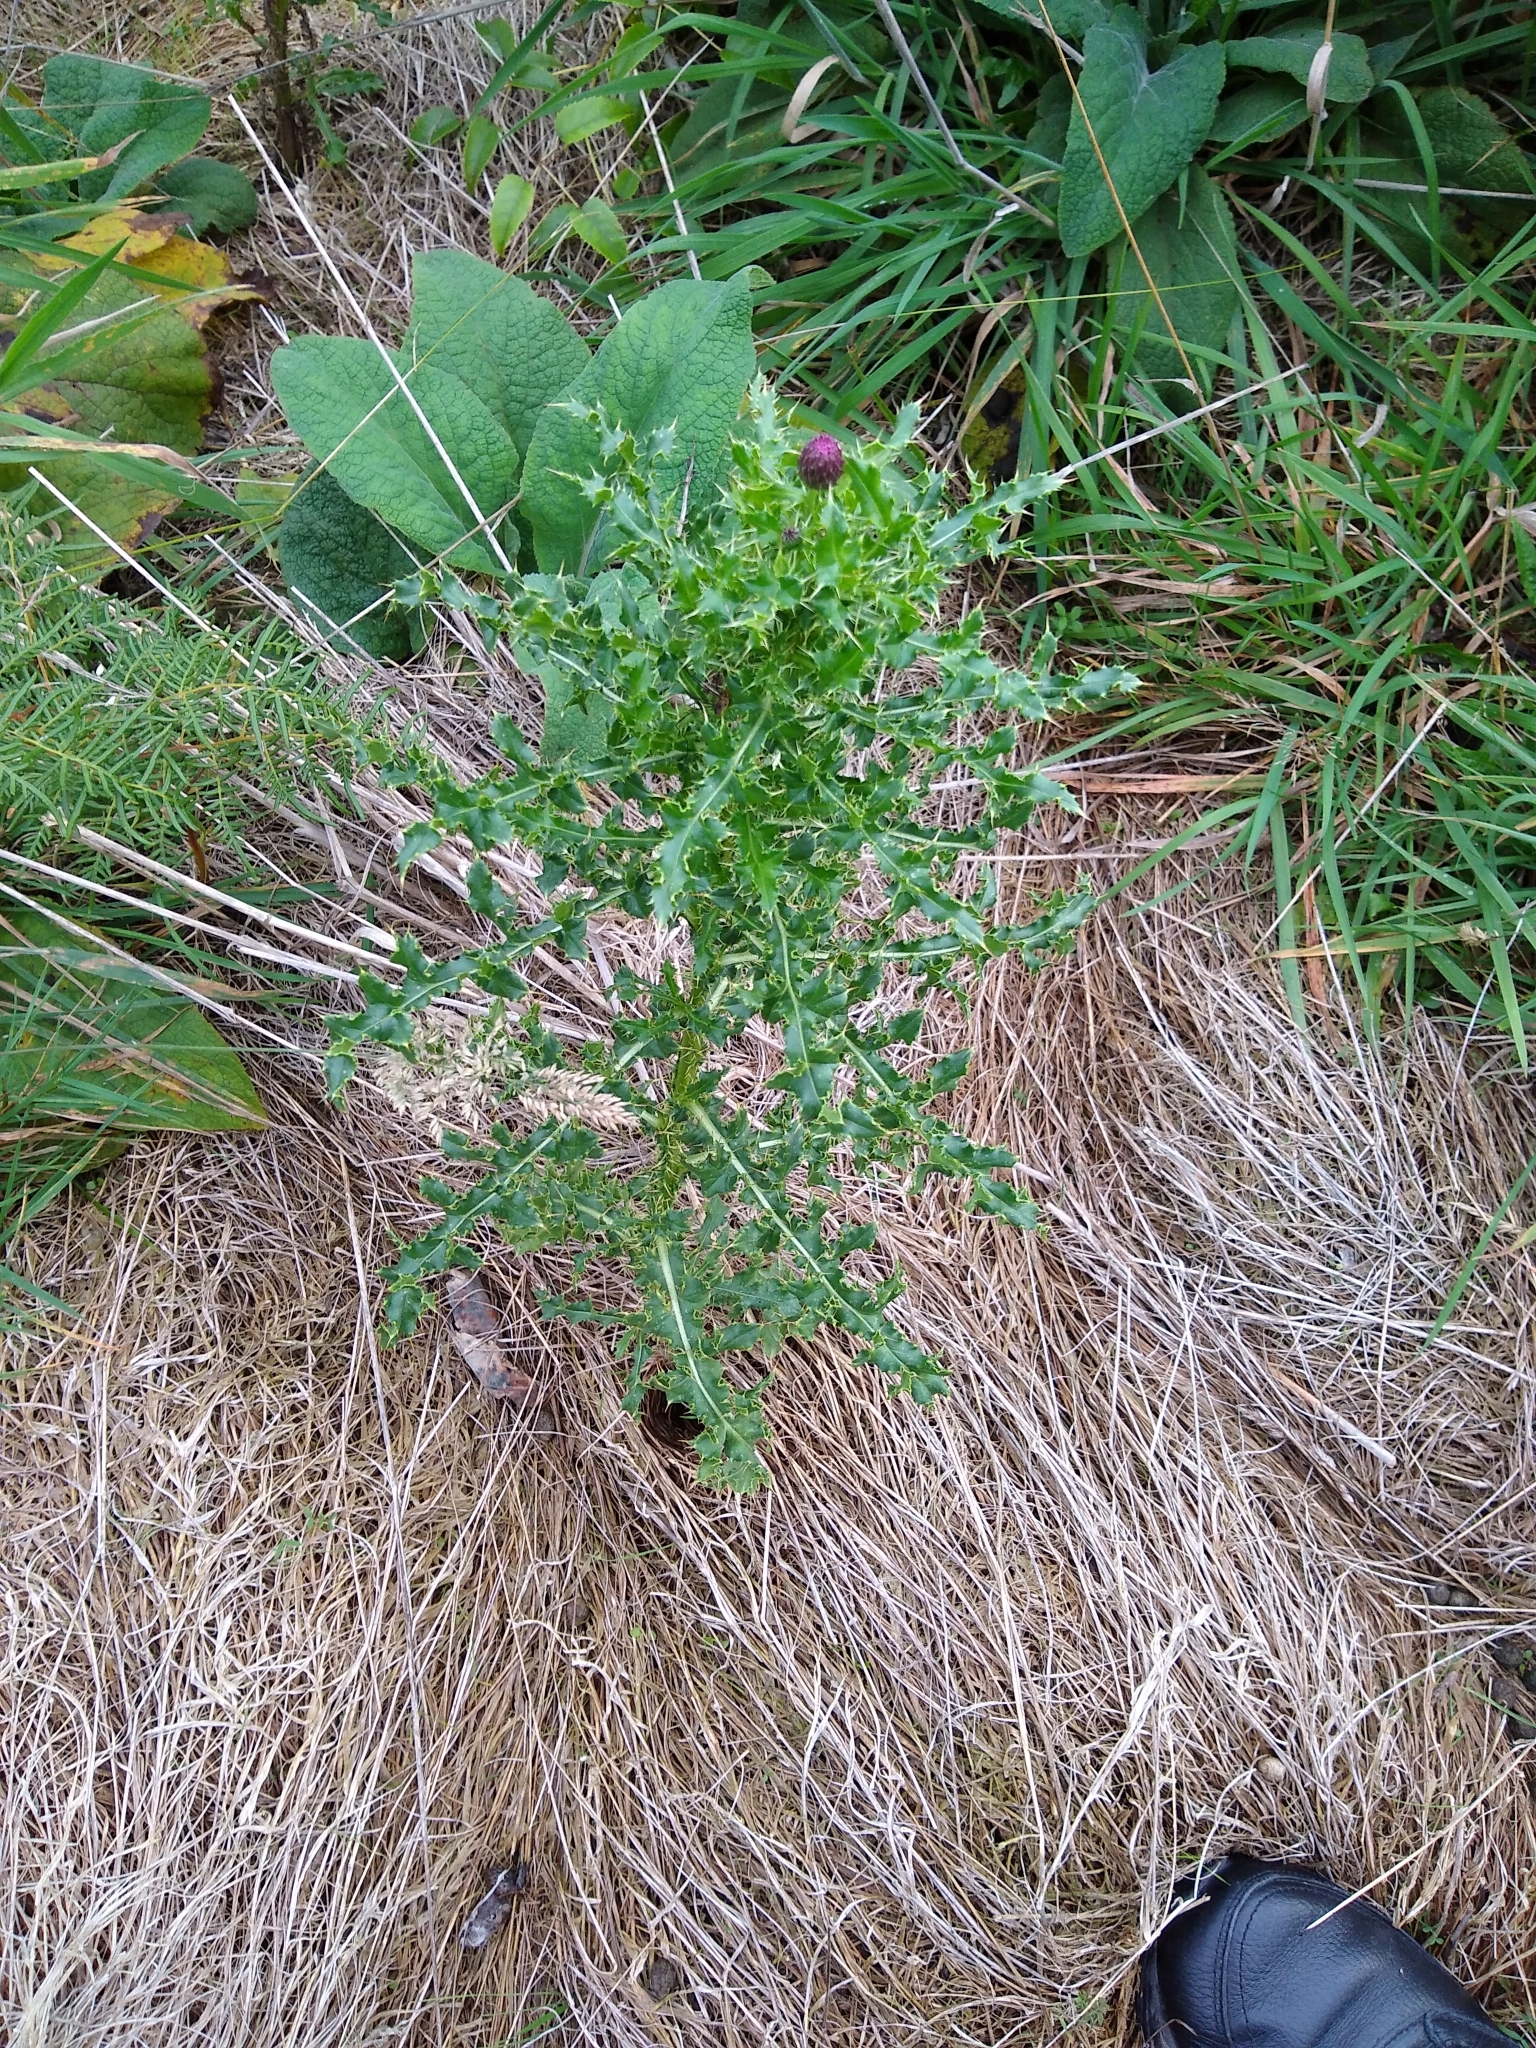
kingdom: Plantae
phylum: Tracheophyta
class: Magnoliopsida
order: Asterales
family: Asteraceae
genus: Cirsium
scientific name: Cirsium arvense
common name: Creeping thistle
